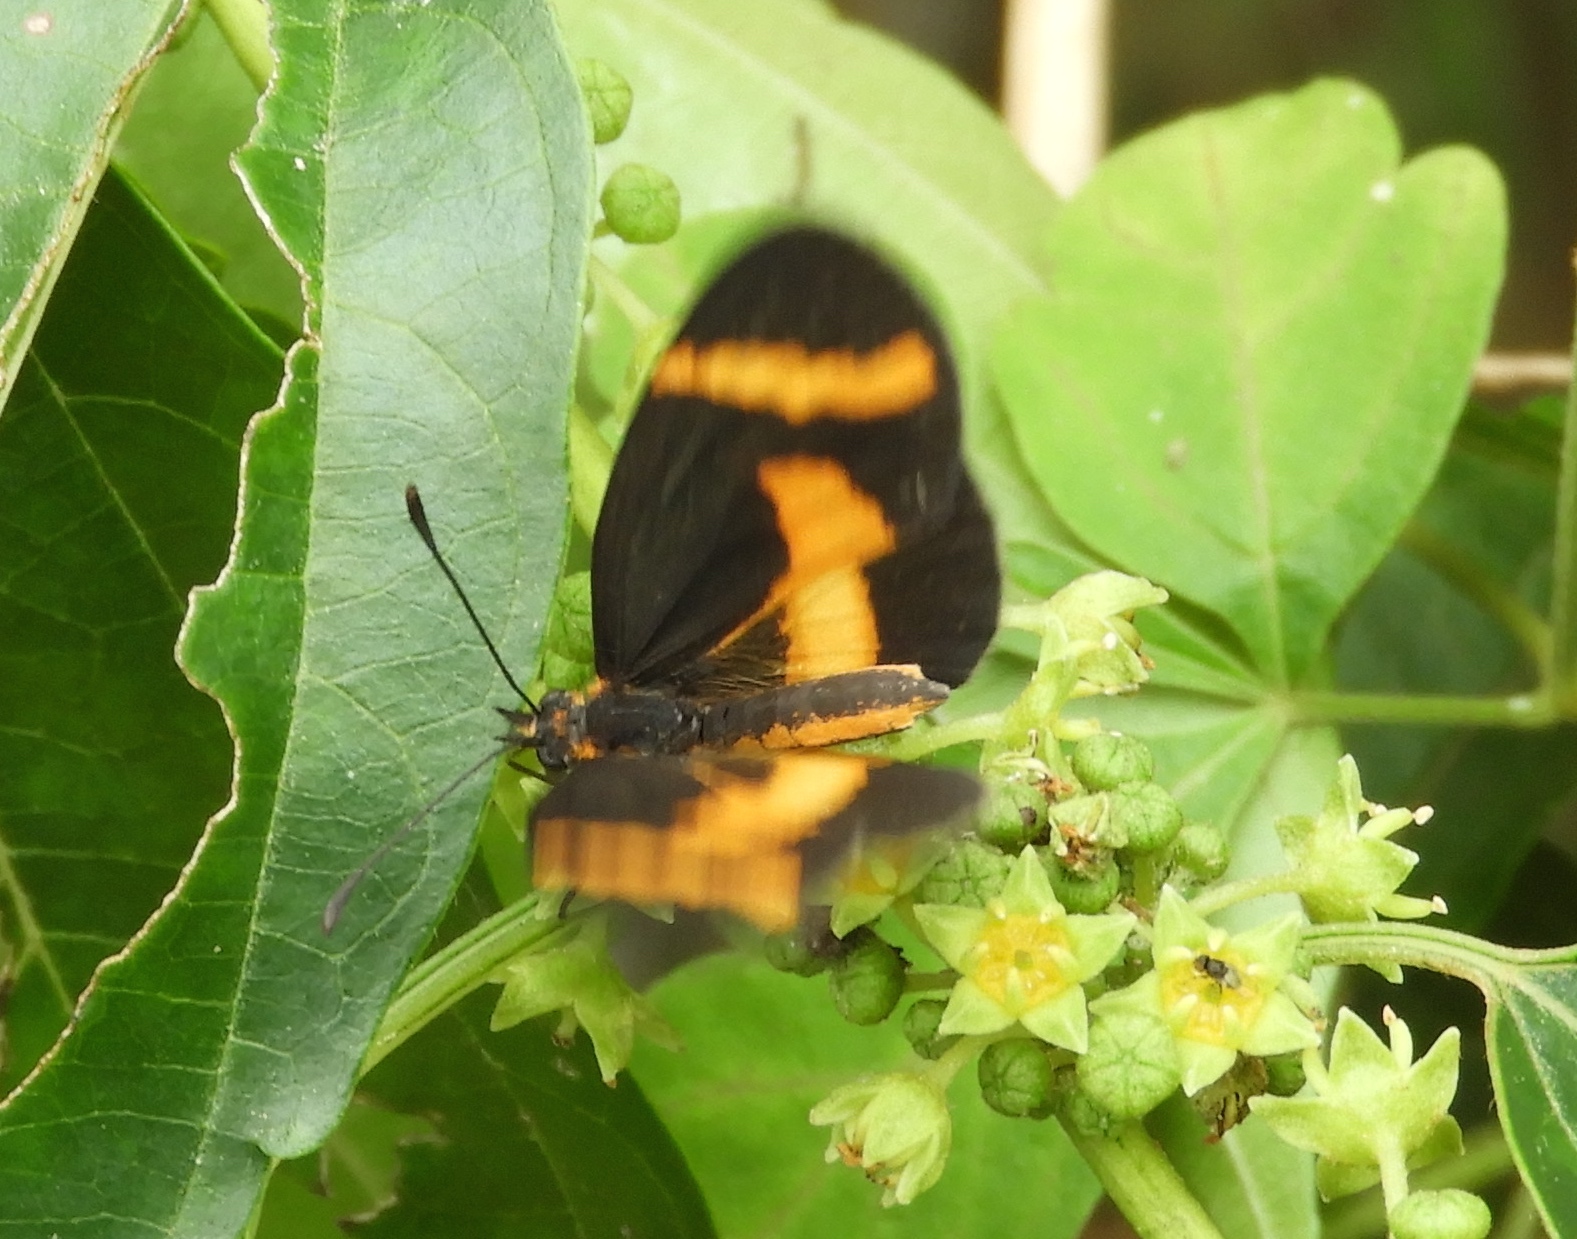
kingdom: Animalia
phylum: Arthropoda
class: Insecta
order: Lepidoptera
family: Nymphalidae
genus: Microtia
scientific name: Microtia elva
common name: Elf
